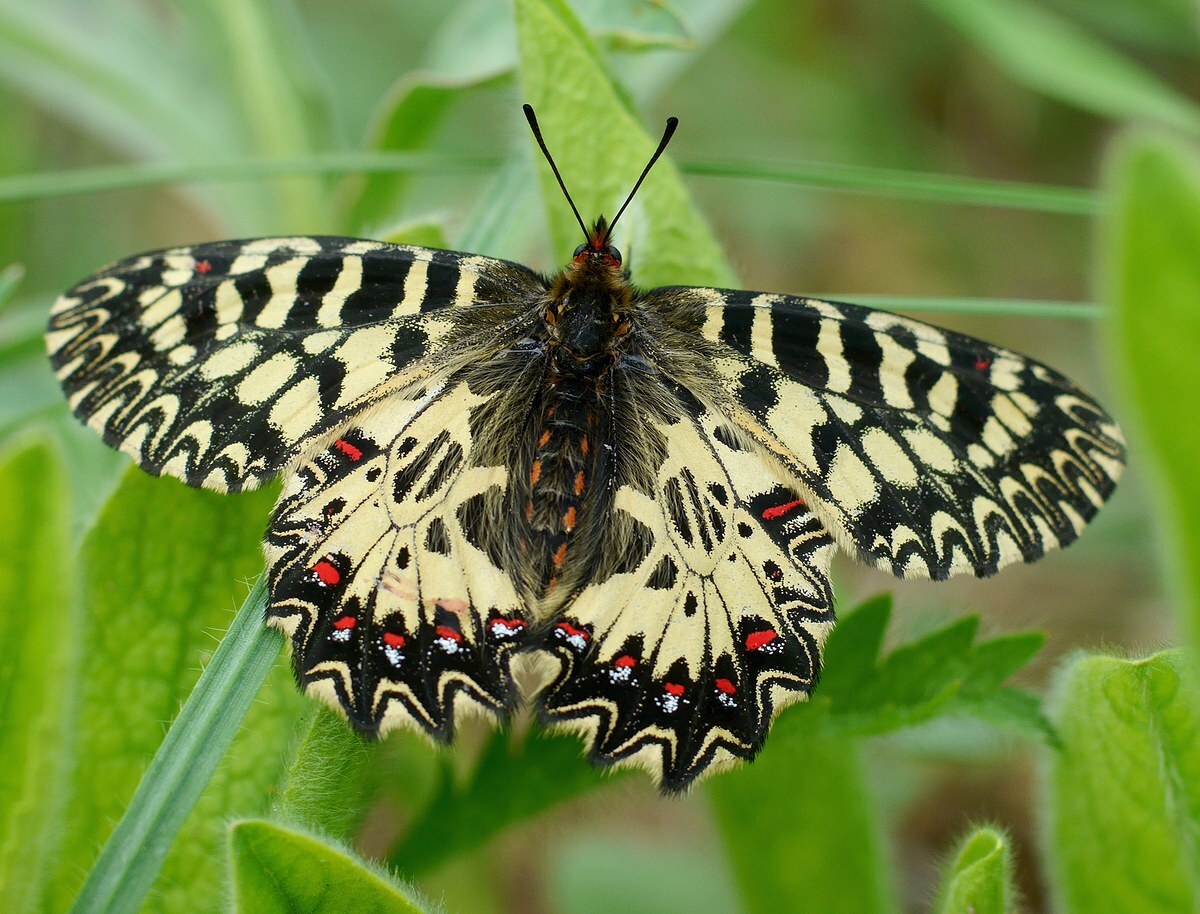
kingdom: Animalia
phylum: Arthropoda
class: Insecta
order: Lepidoptera
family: Papilionidae
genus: Zerynthia
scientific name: Zerynthia polyxena
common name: Southern festoon
